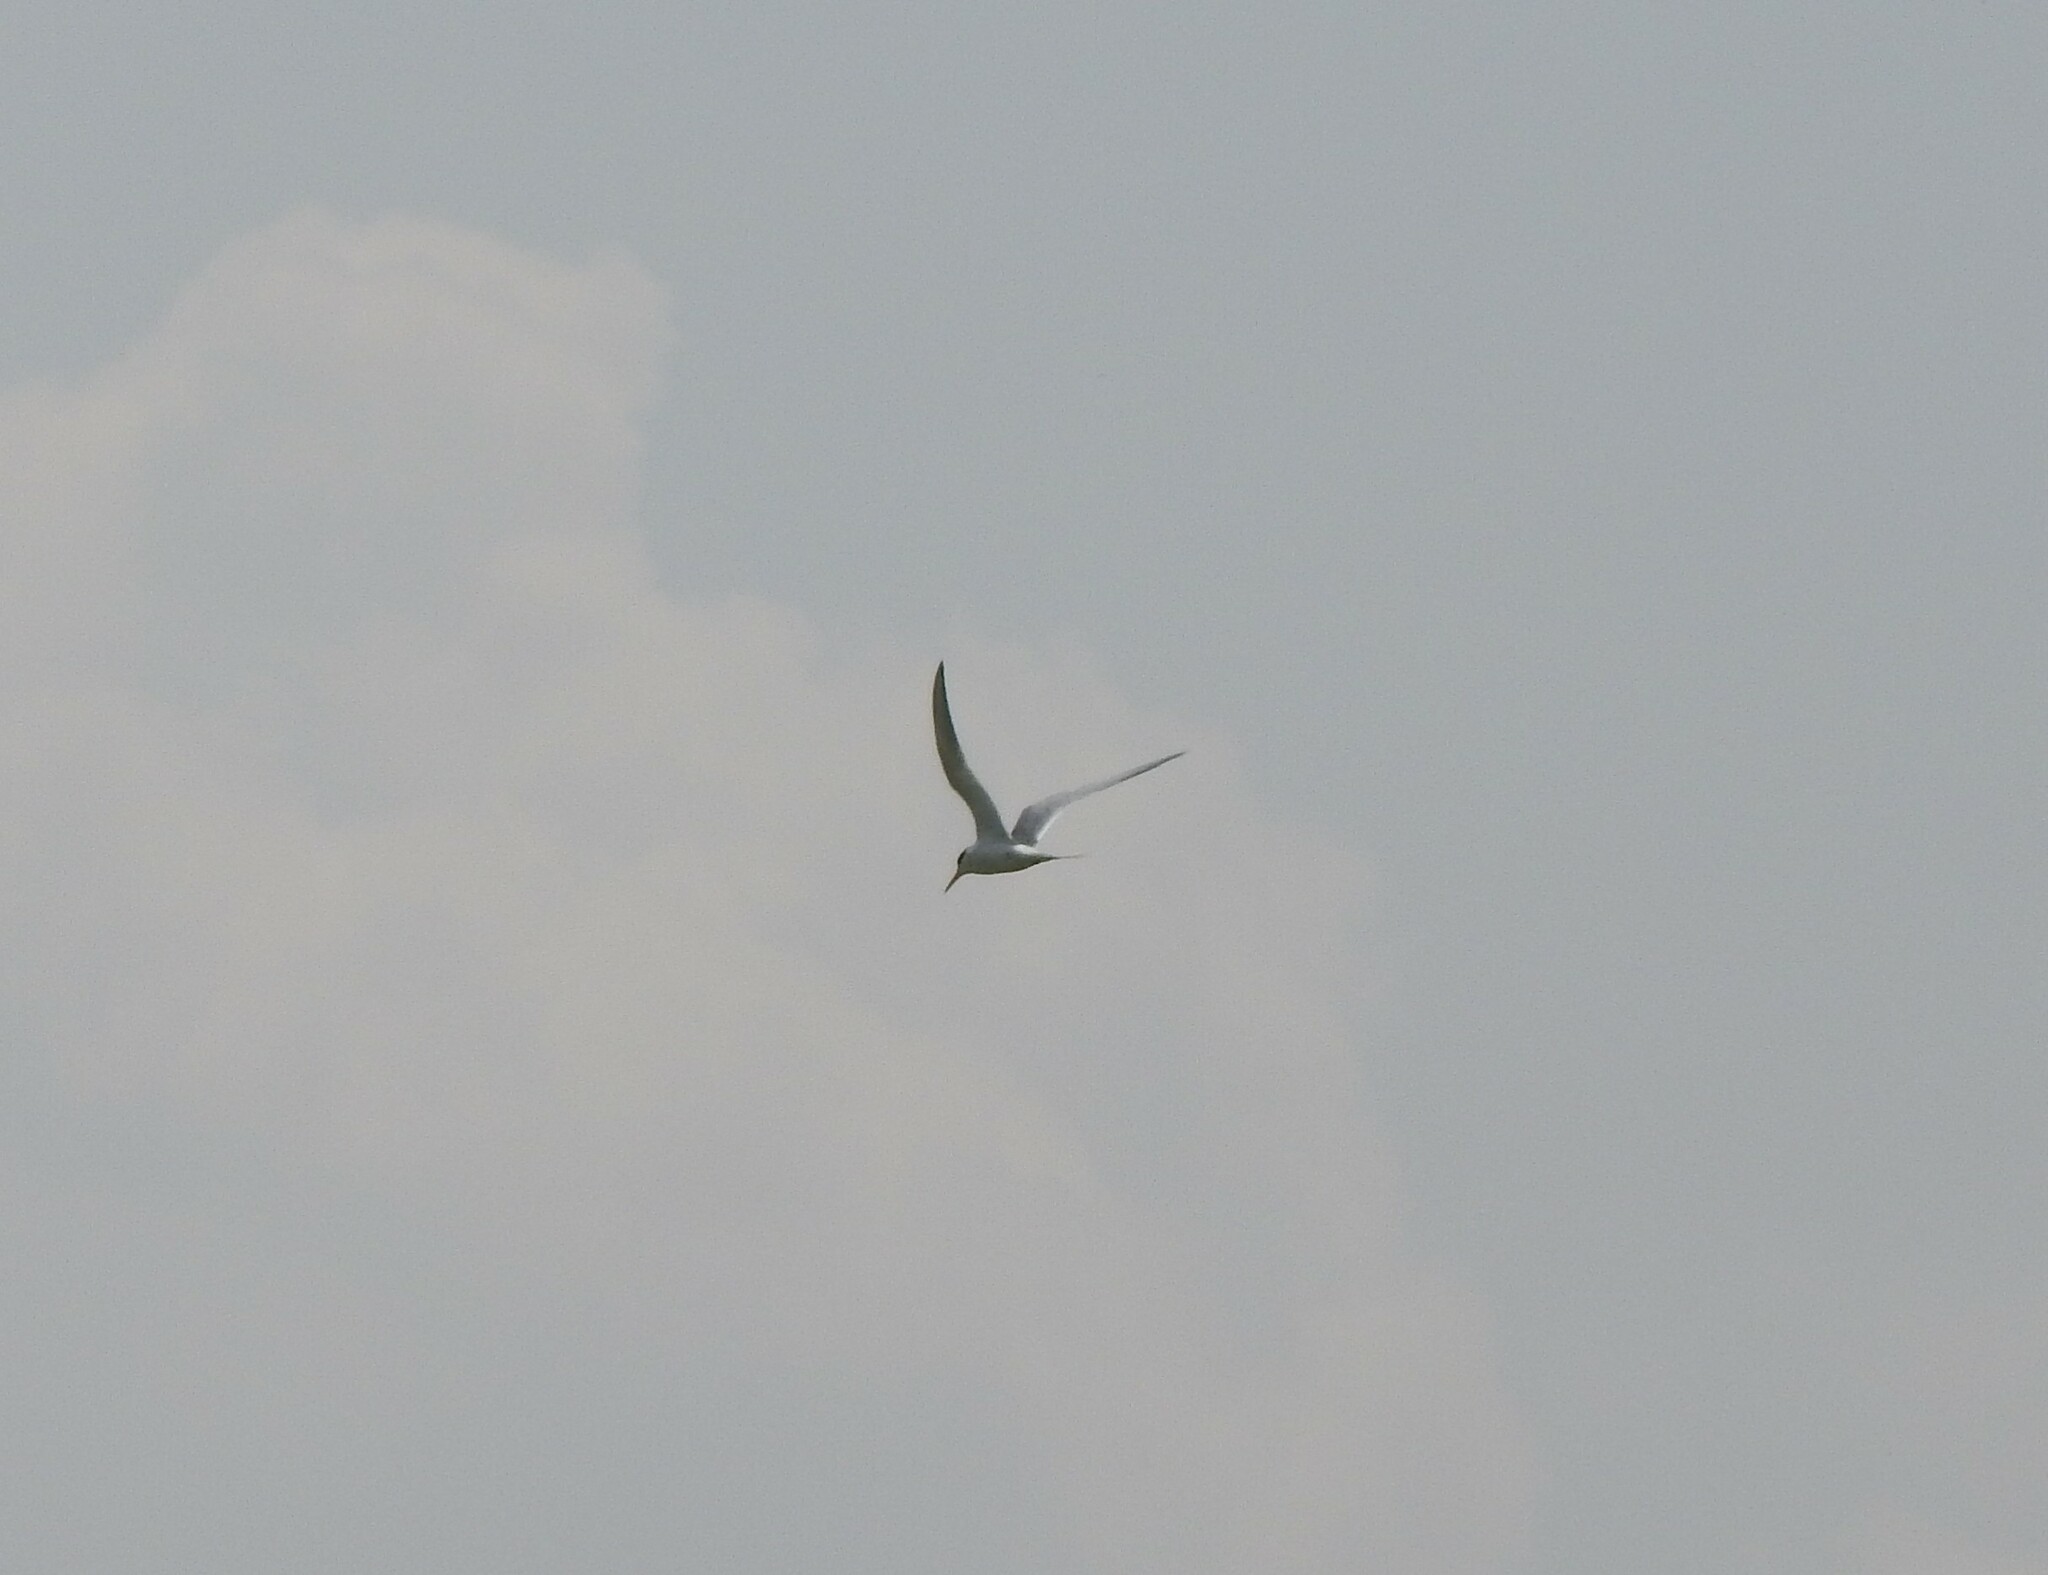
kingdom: Animalia
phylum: Chordata
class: Aves
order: Charadriiformes
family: Laridae
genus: Sterna
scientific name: Sterna forsteri
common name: Forster's tern
